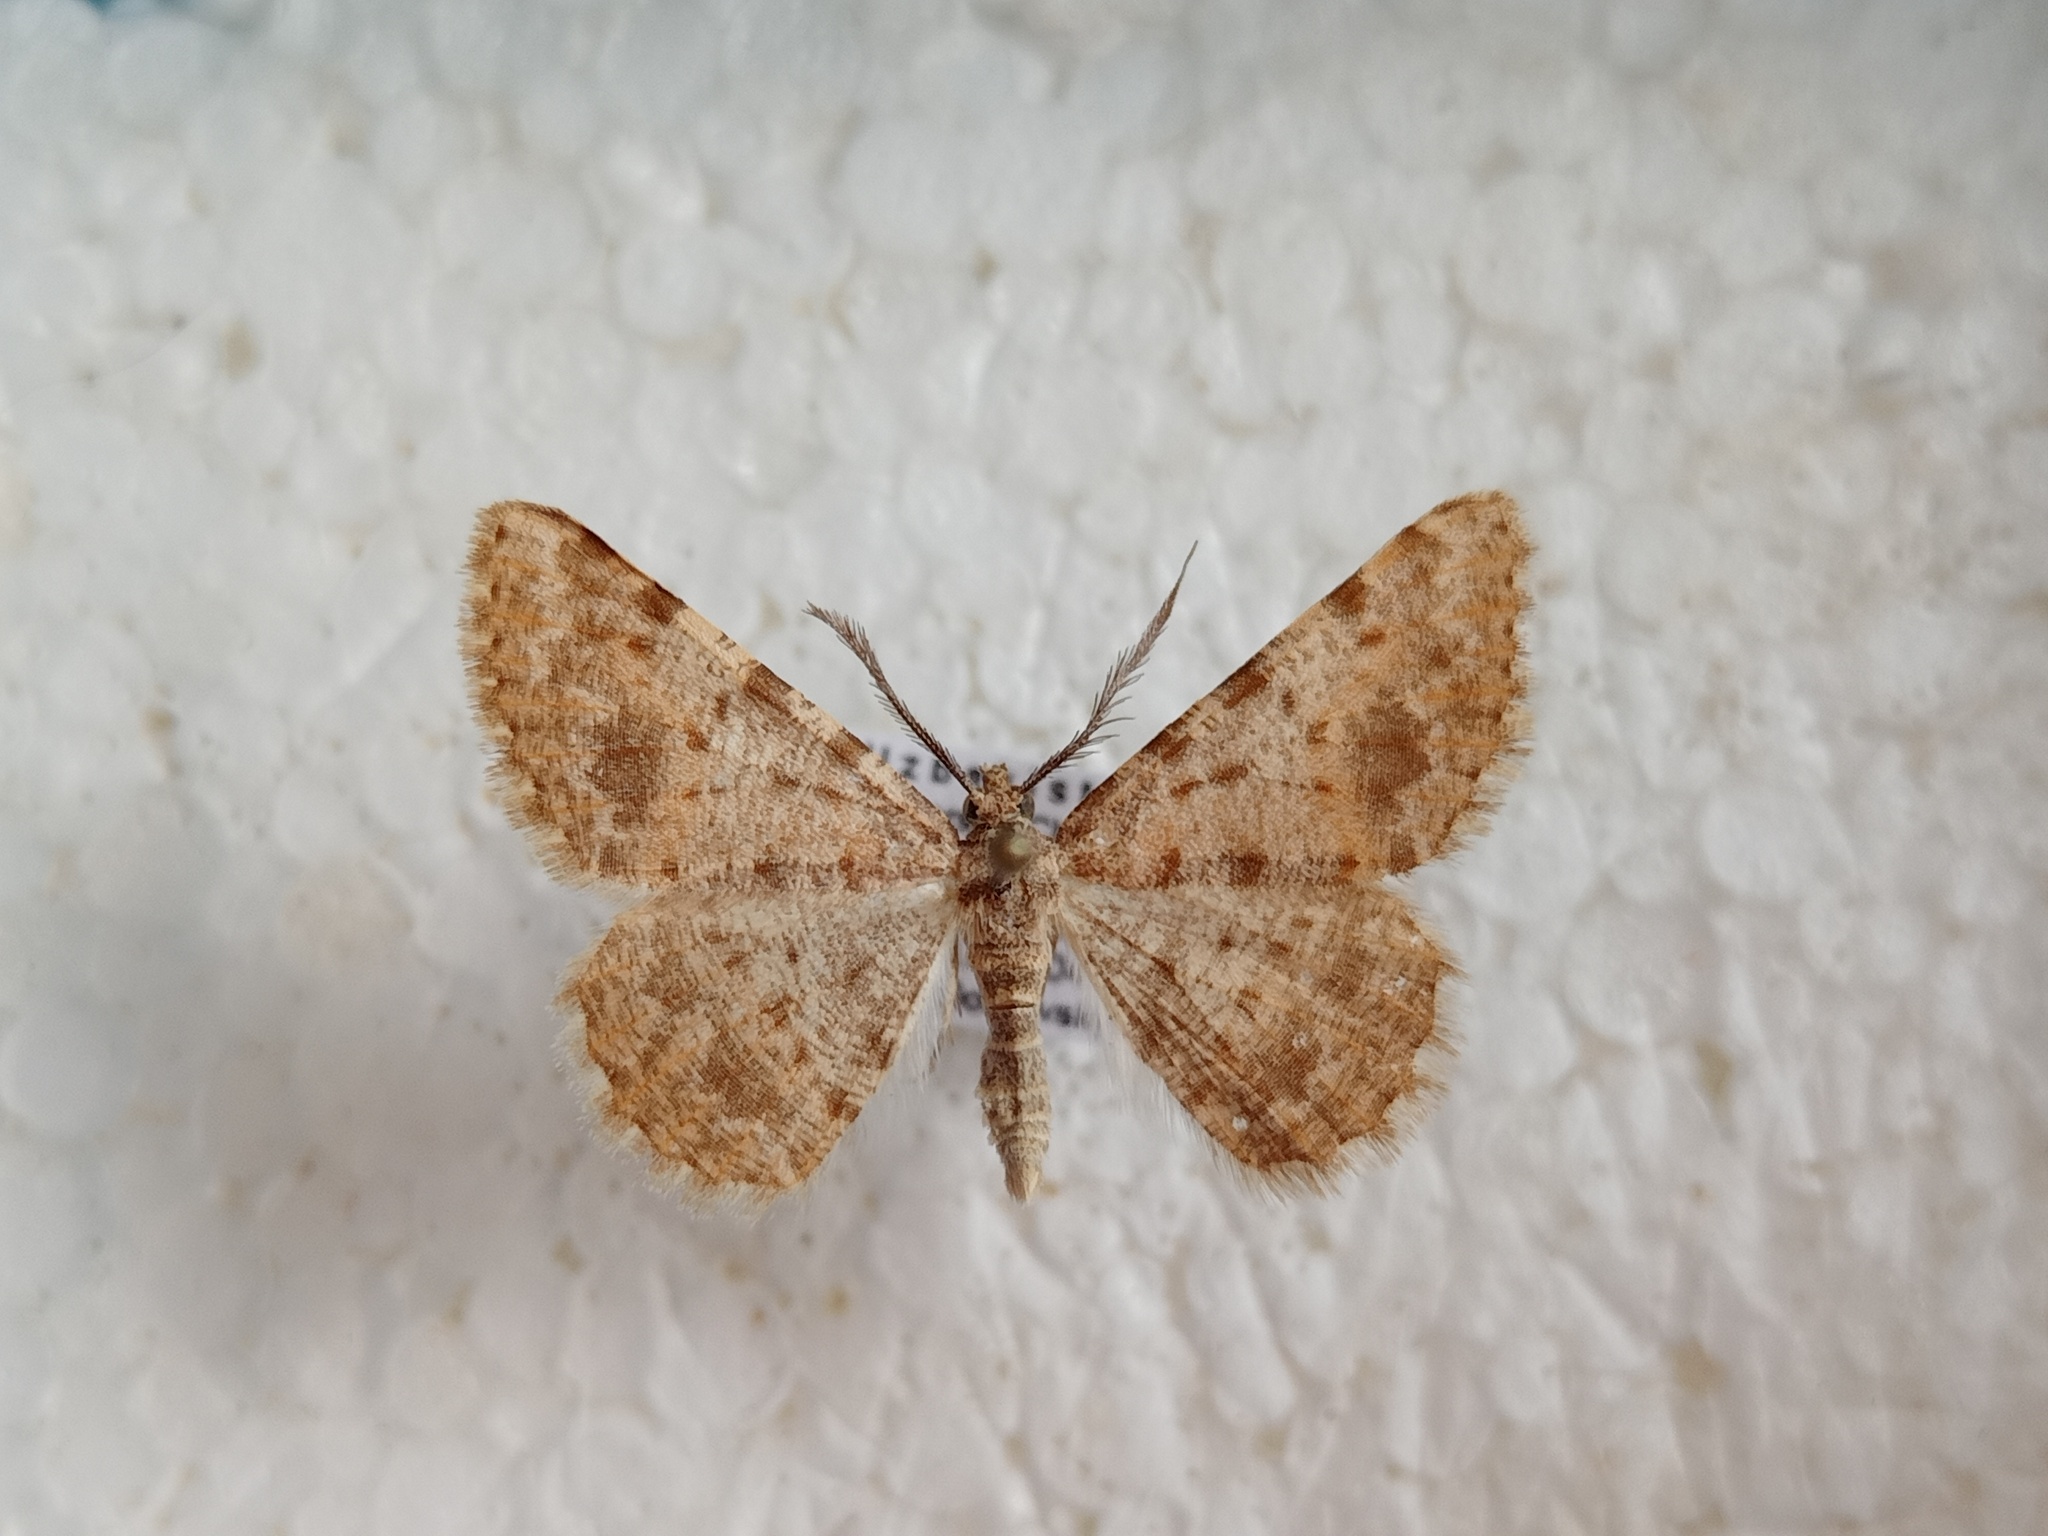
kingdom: Animalia
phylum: Arthropoda
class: Insecta
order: Lepidoptera
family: Geometridae
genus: Gnopharmia
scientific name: Gnopharmia colchidaria
